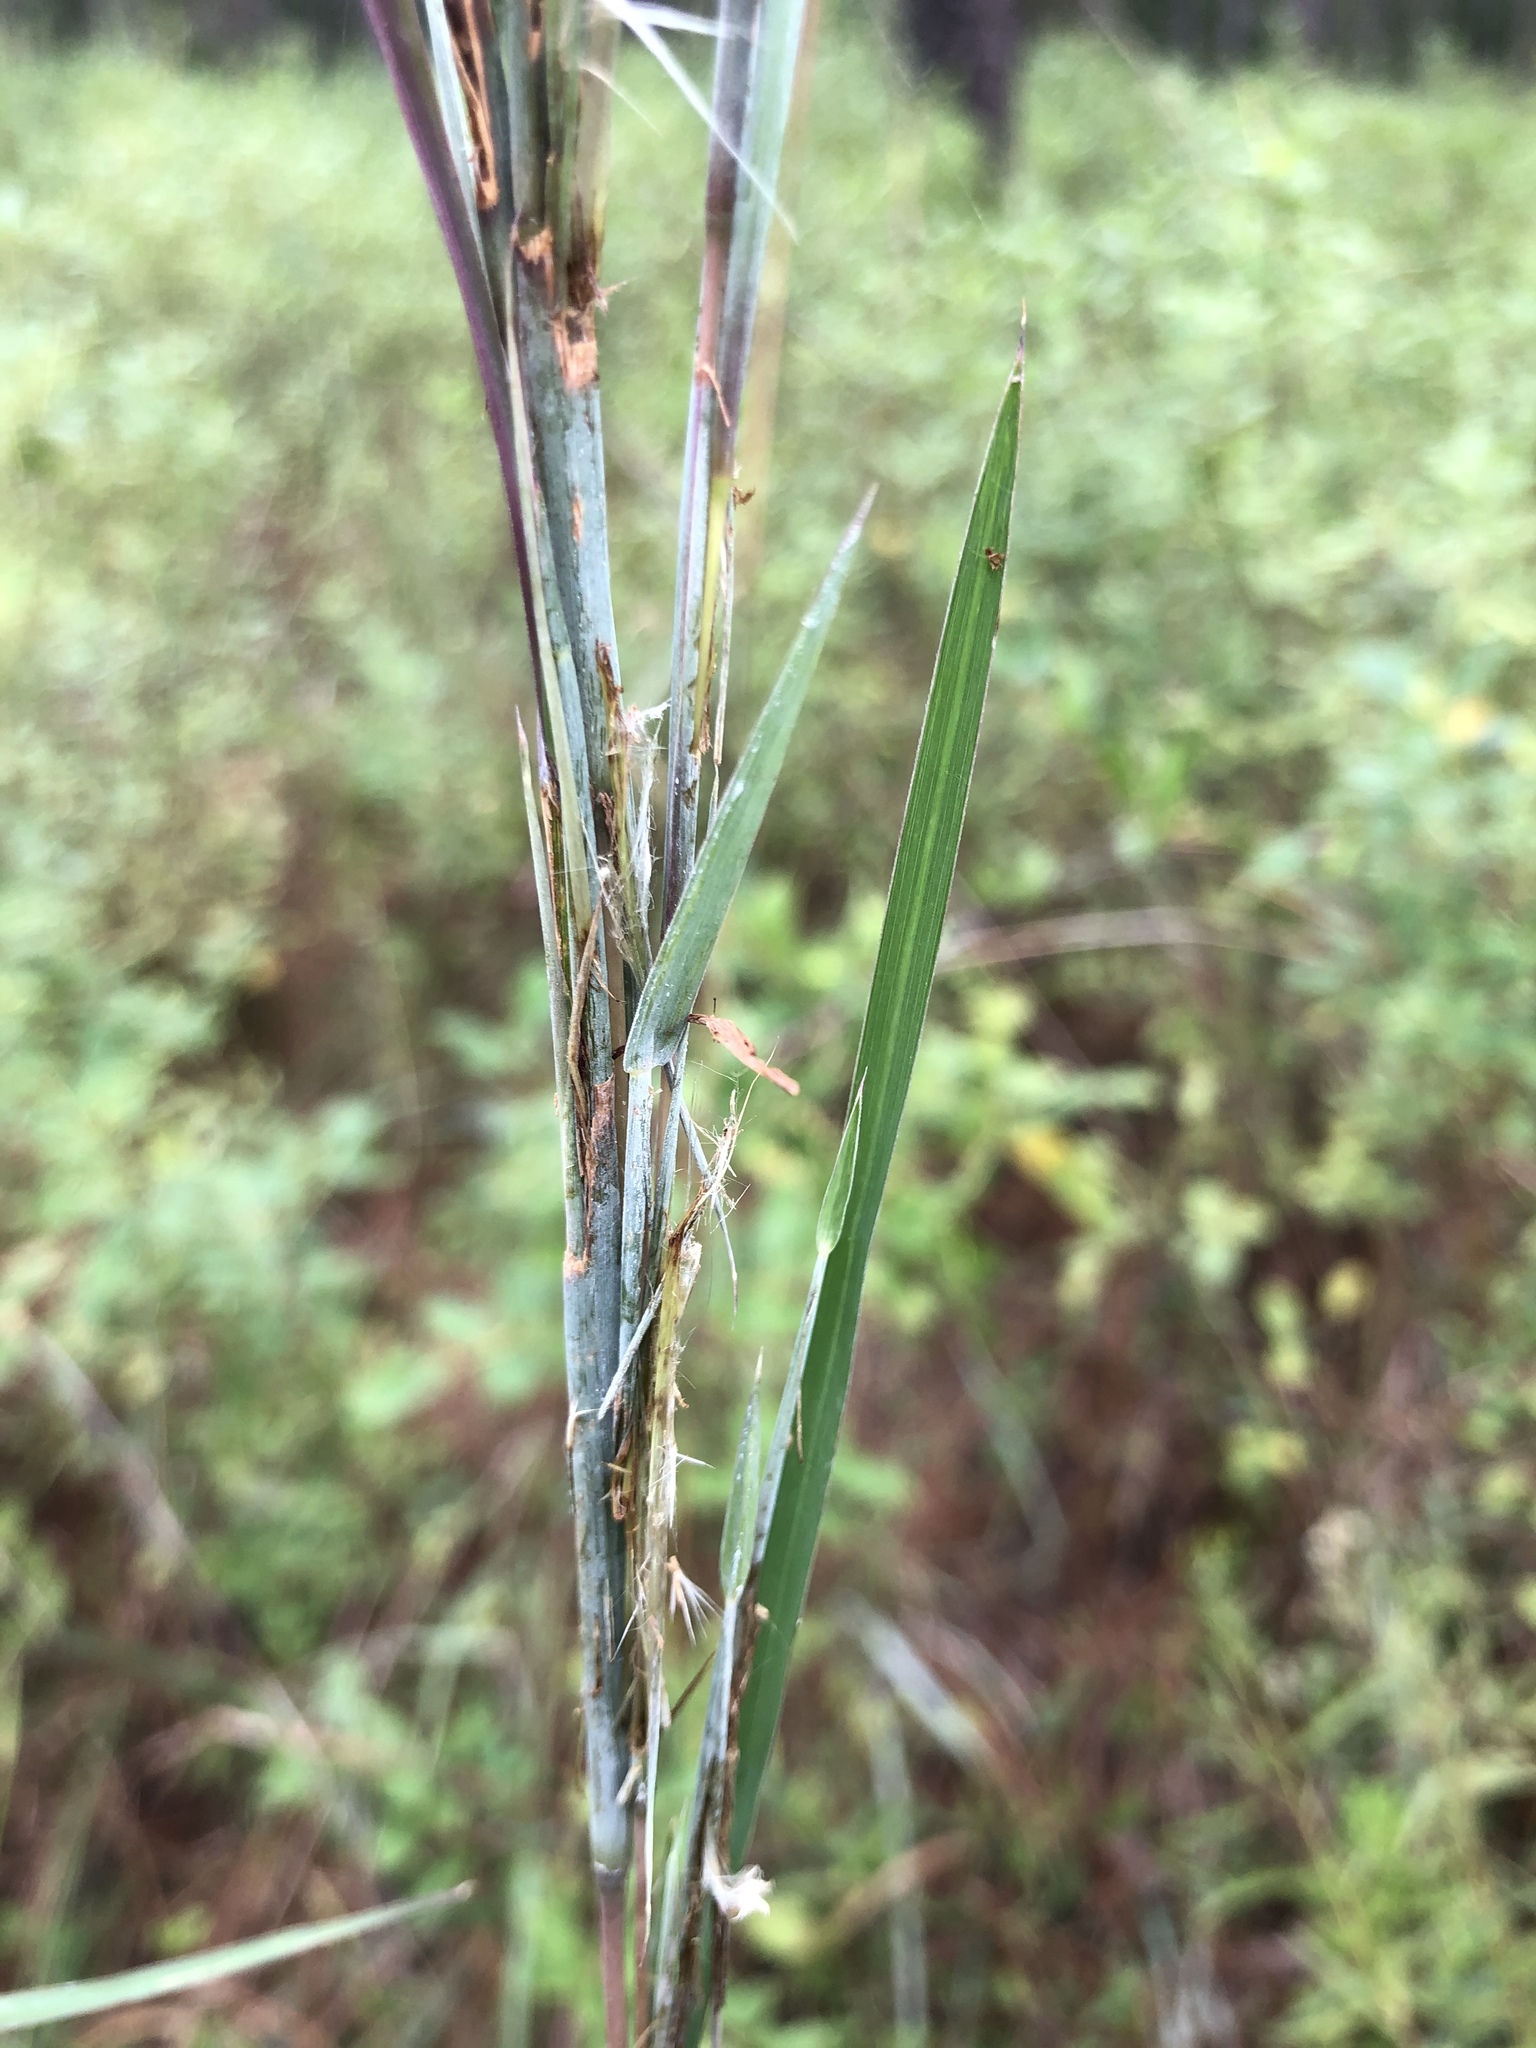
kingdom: Plantae
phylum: Tracheophyta
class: Liliopsida
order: Poales
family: Poaceae
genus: Andropogon
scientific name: Andropogon dealbatus
